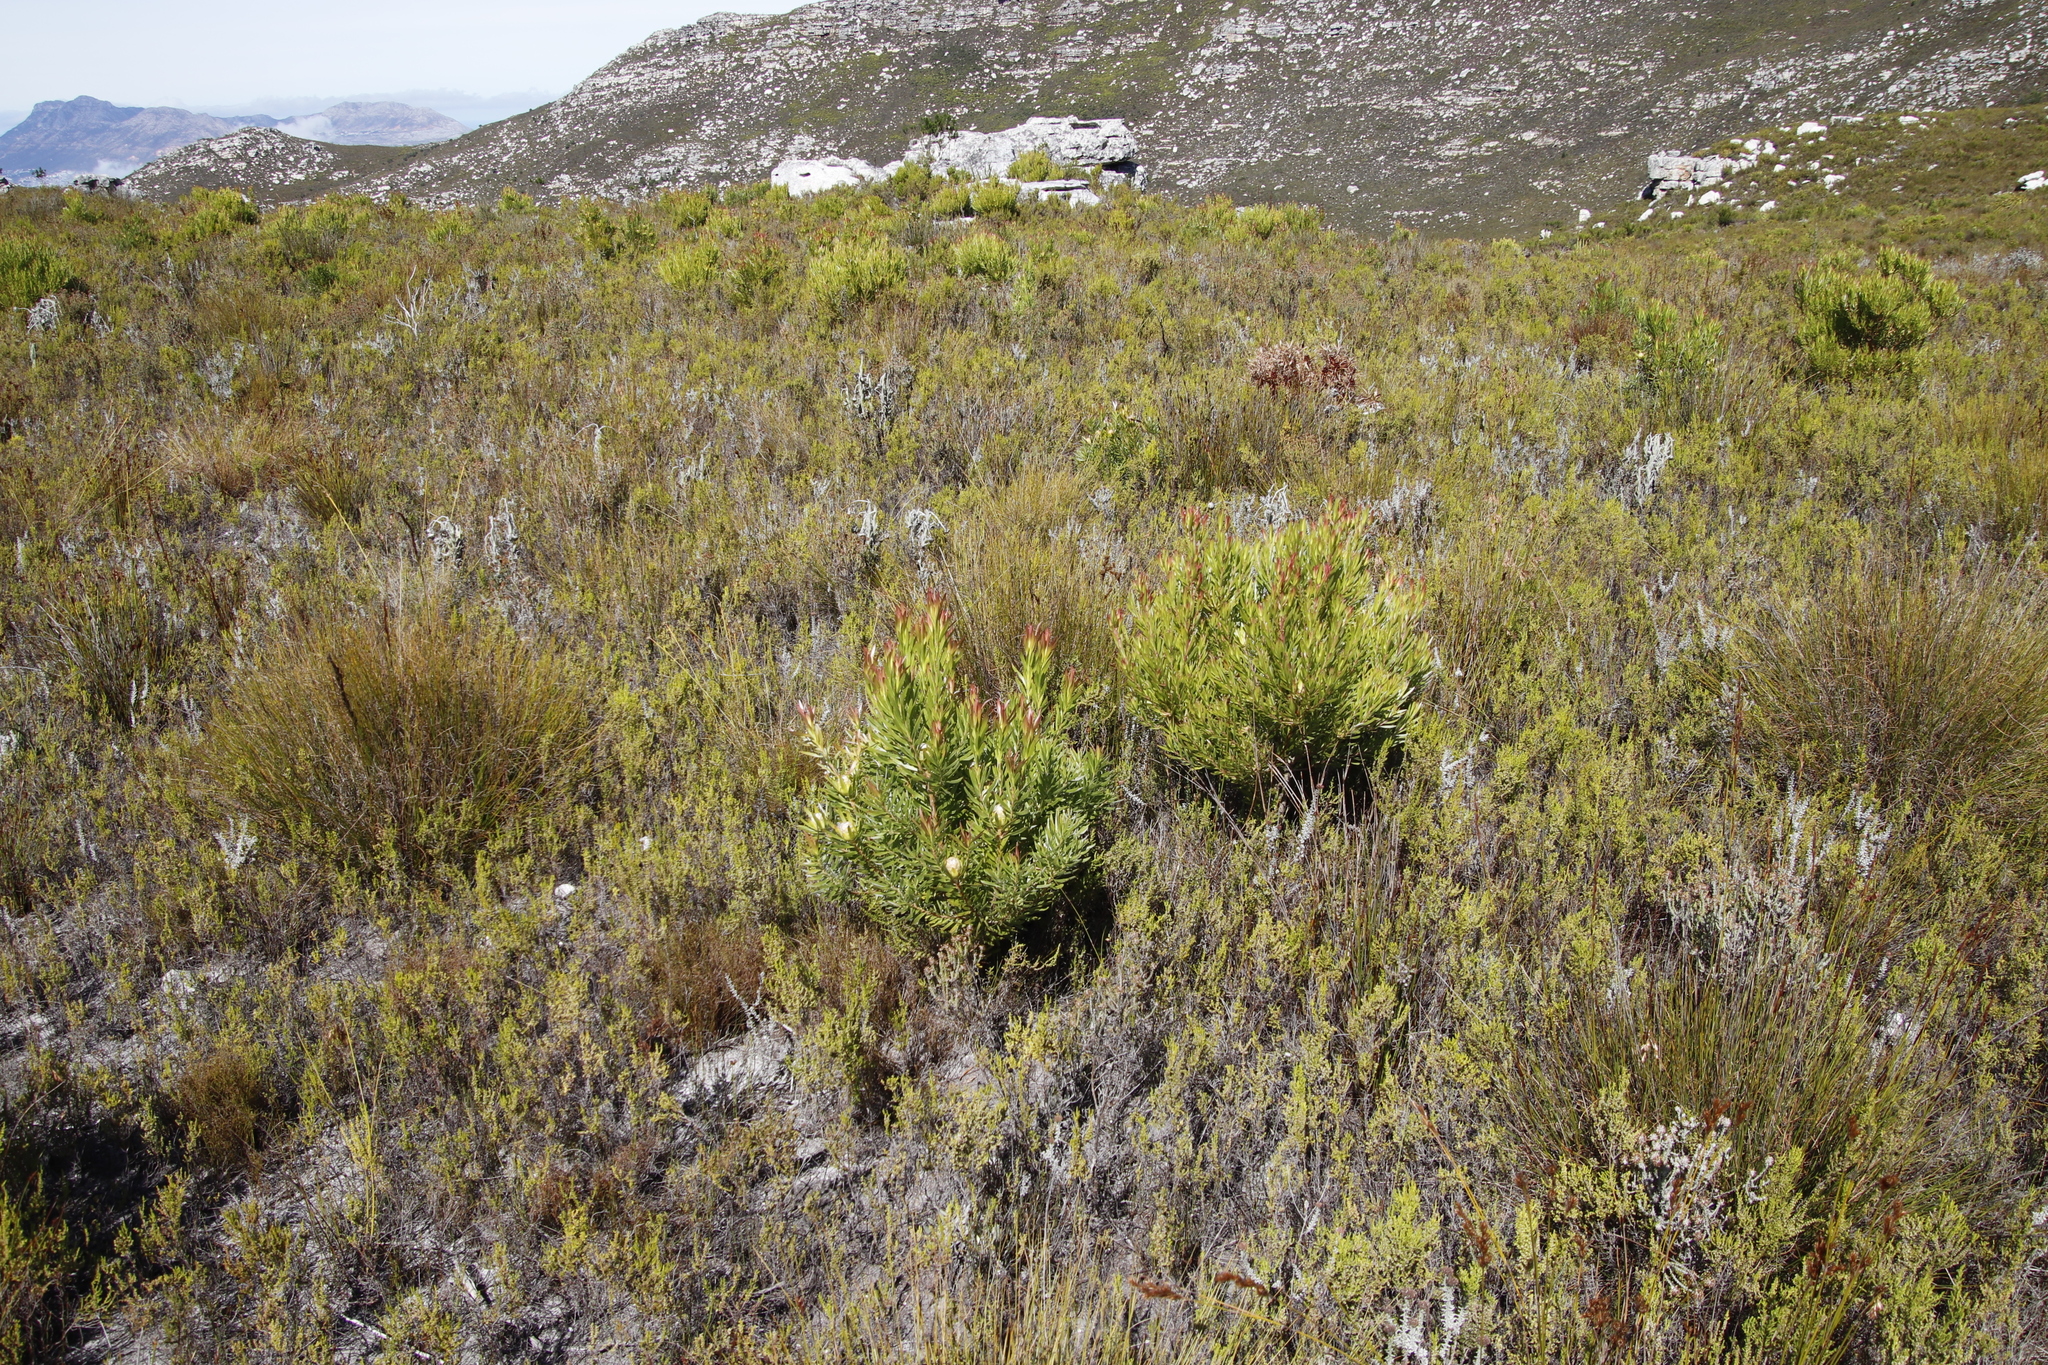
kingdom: Plantae
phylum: Tracheophyta
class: Magnoliopsida
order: Proteales
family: Proteaceae
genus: Leucadendron
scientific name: Leucadendron xanthoconus
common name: Sickle-leaf conebush
